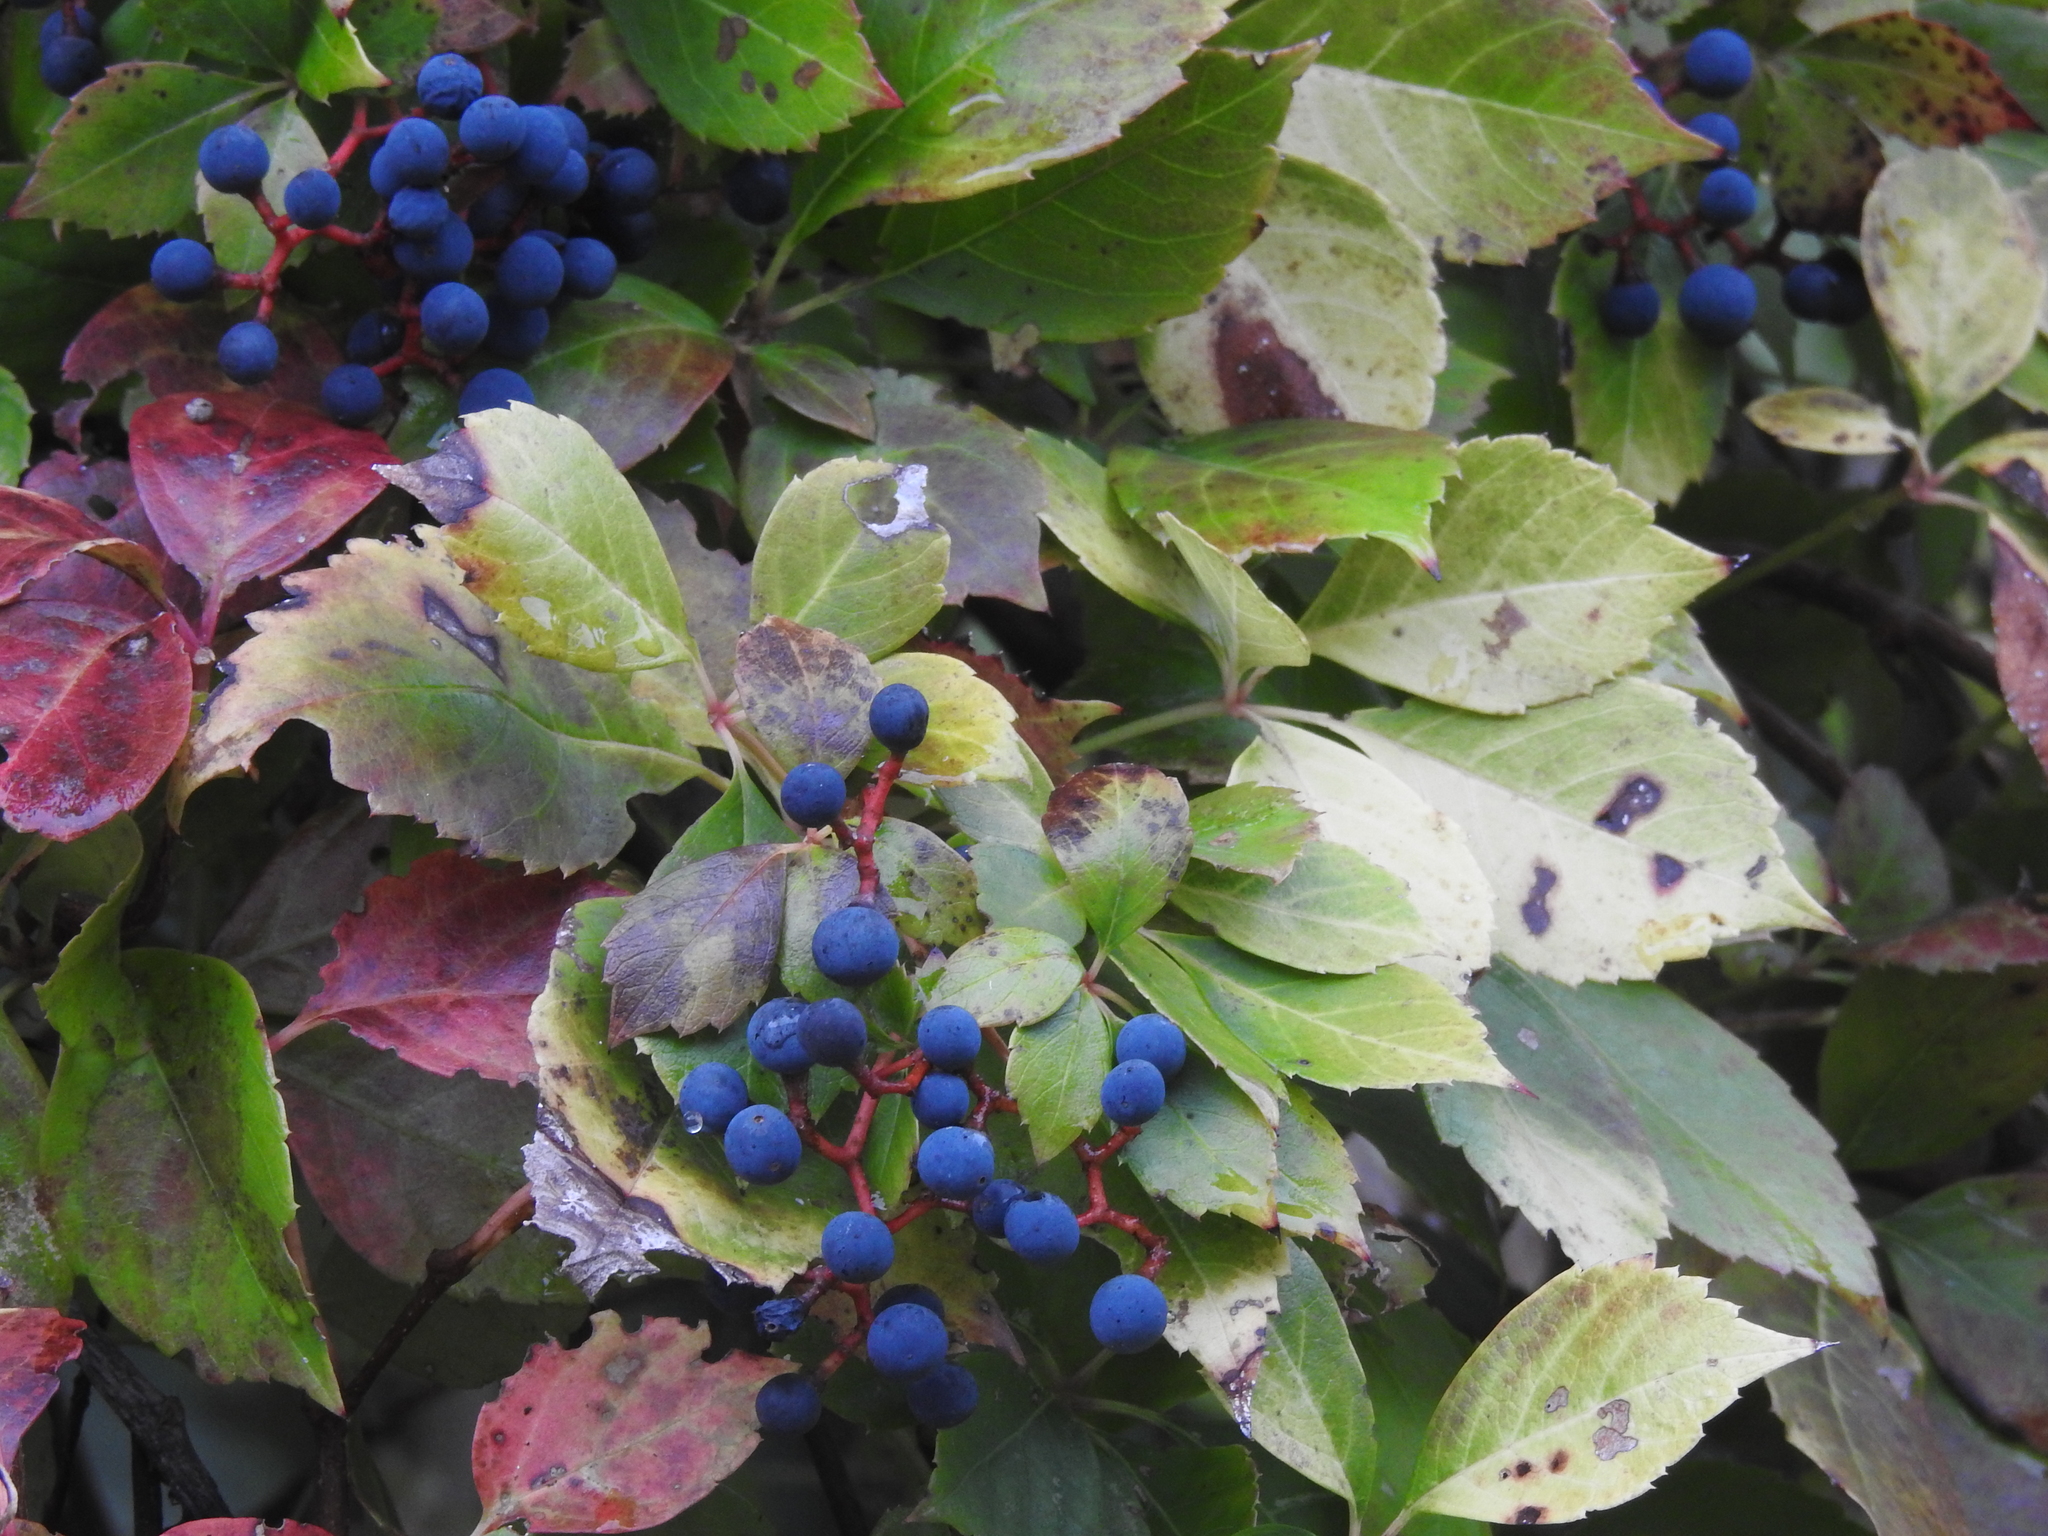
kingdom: Plantae
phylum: Tracheophyta
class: Magnoliopsida
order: Vitales
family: Vitaceae
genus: Parthenocissus
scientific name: Parthenocissus quinquefolia
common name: Virginia-creeper
